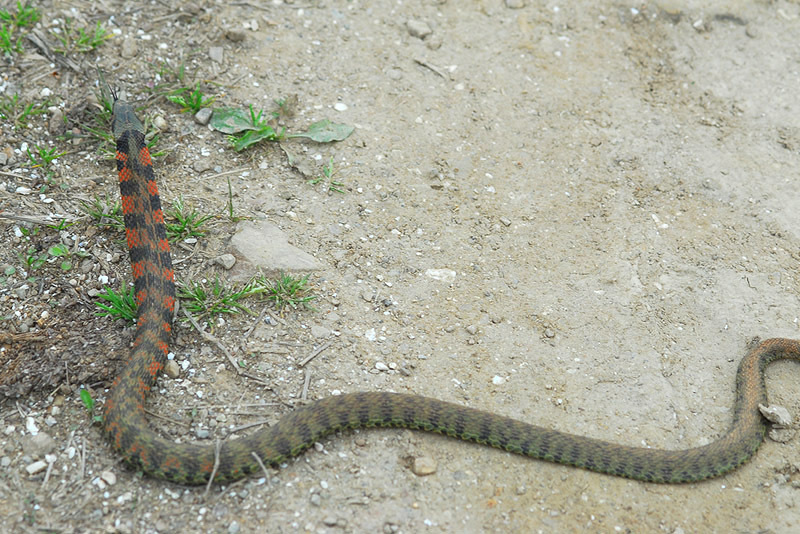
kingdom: Animalia
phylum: Chordata
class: Squamata
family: Colubridae
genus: Rhabdophis
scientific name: Rhabdophis tigrinus
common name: Tiger keelback
